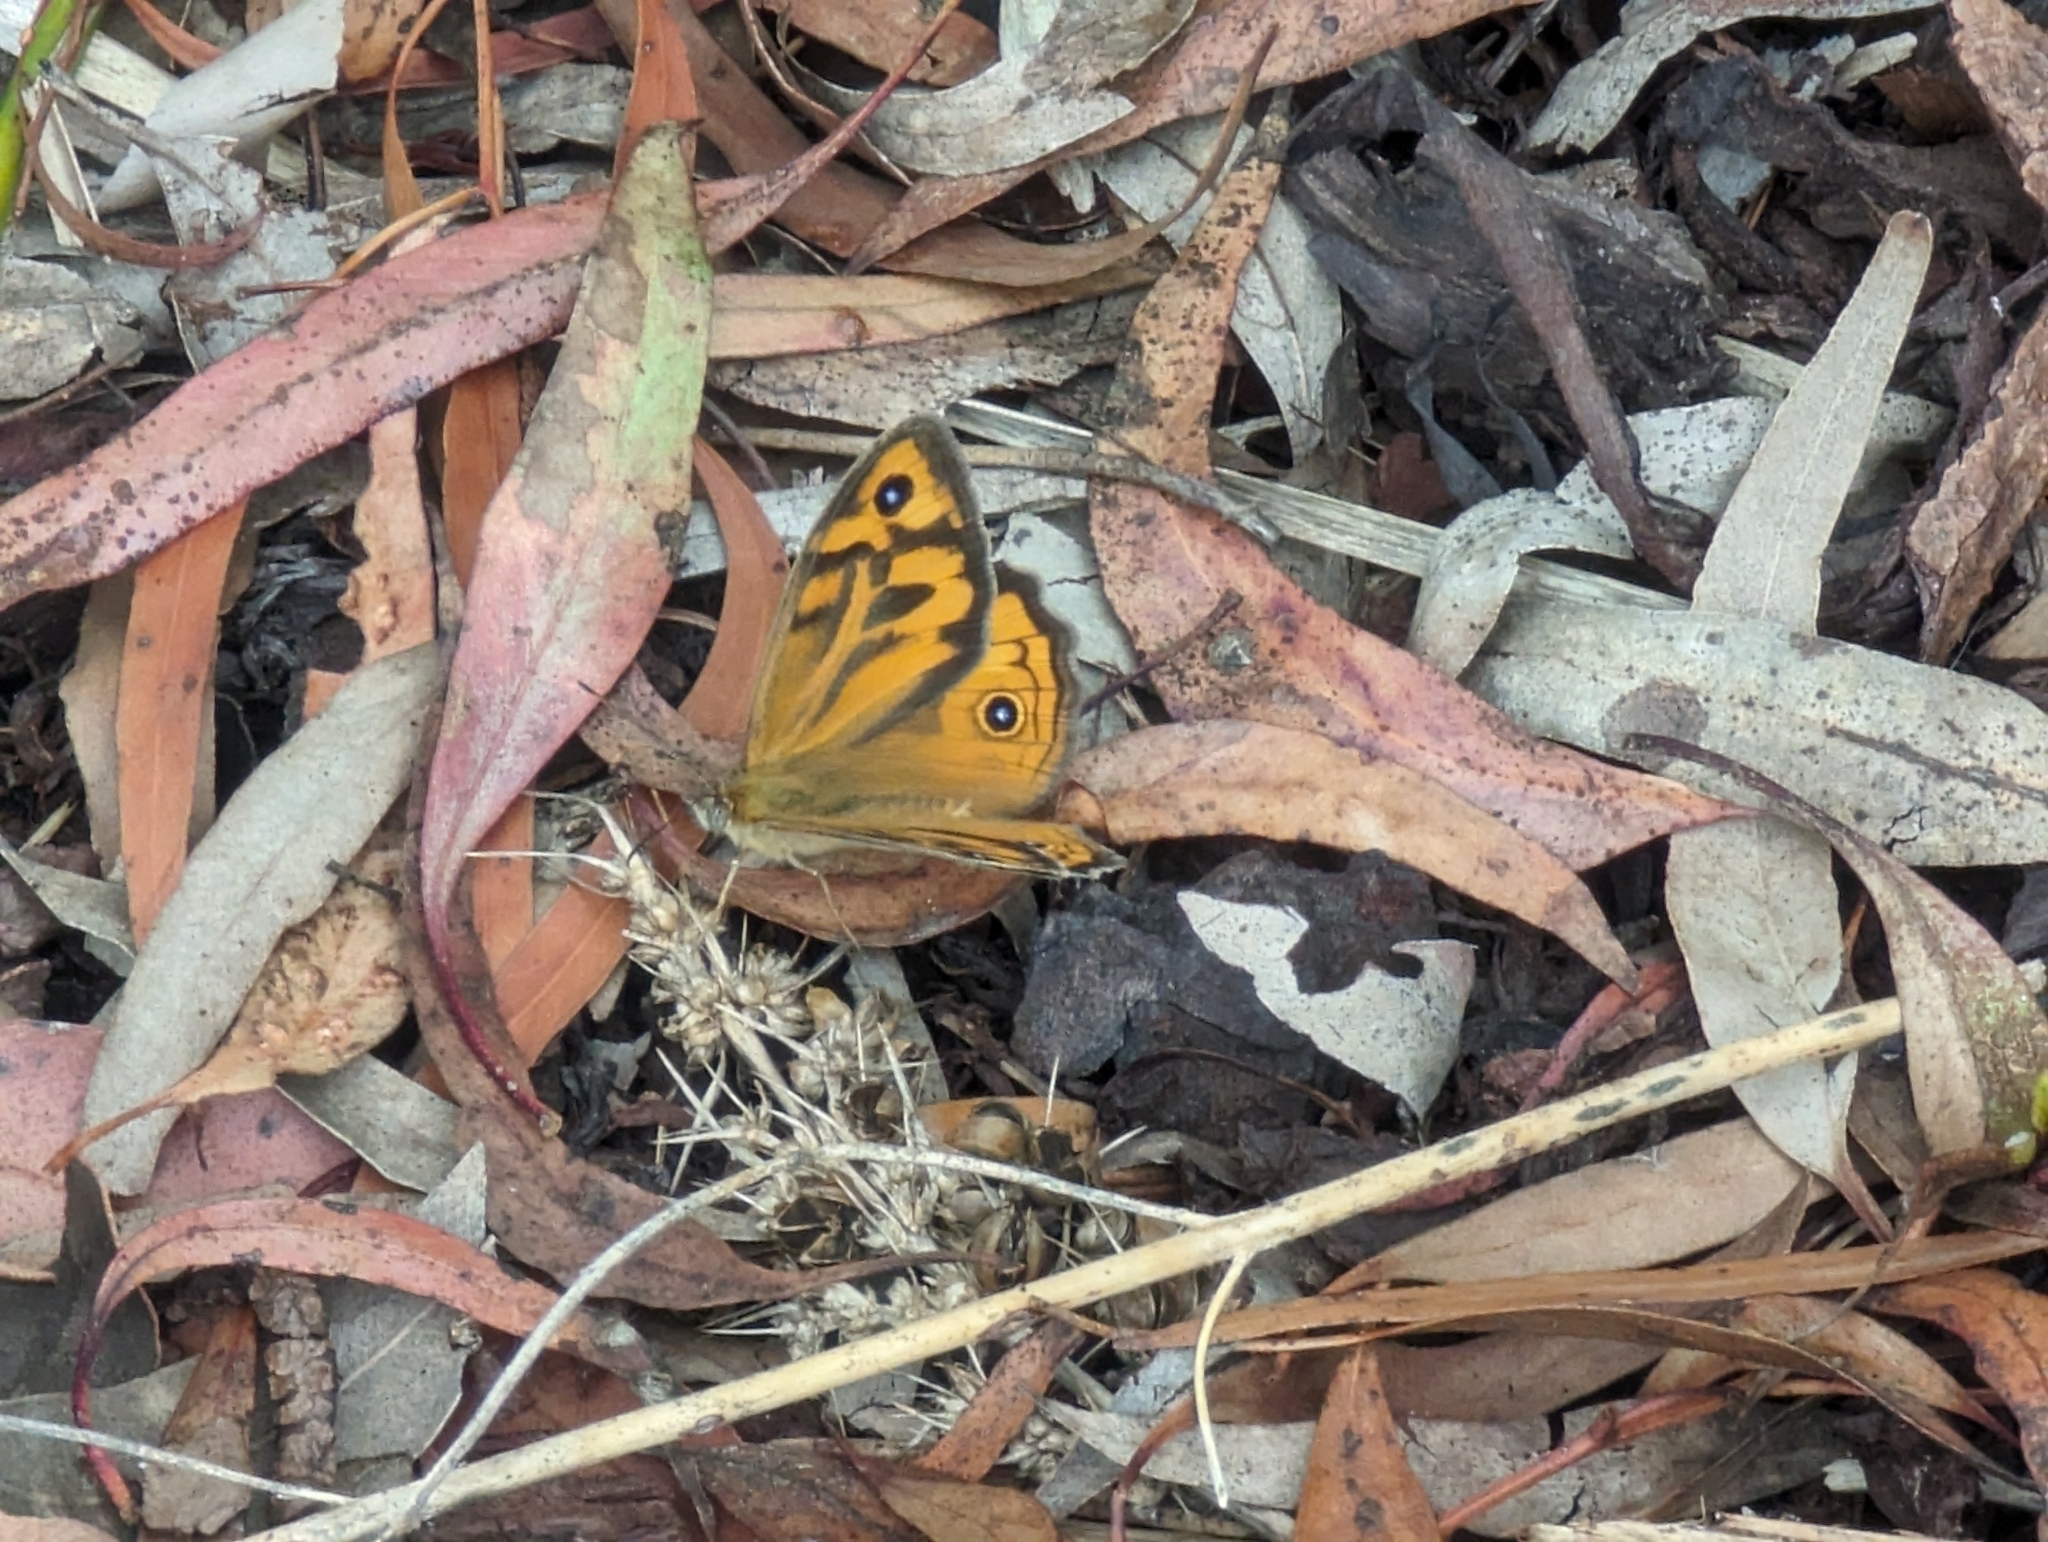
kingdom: Animalia
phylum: Arthropoda
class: Insecta
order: Lepidoptera
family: Nymphalidae
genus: Heteronympha
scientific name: Heteronympha merope
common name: Common brown
